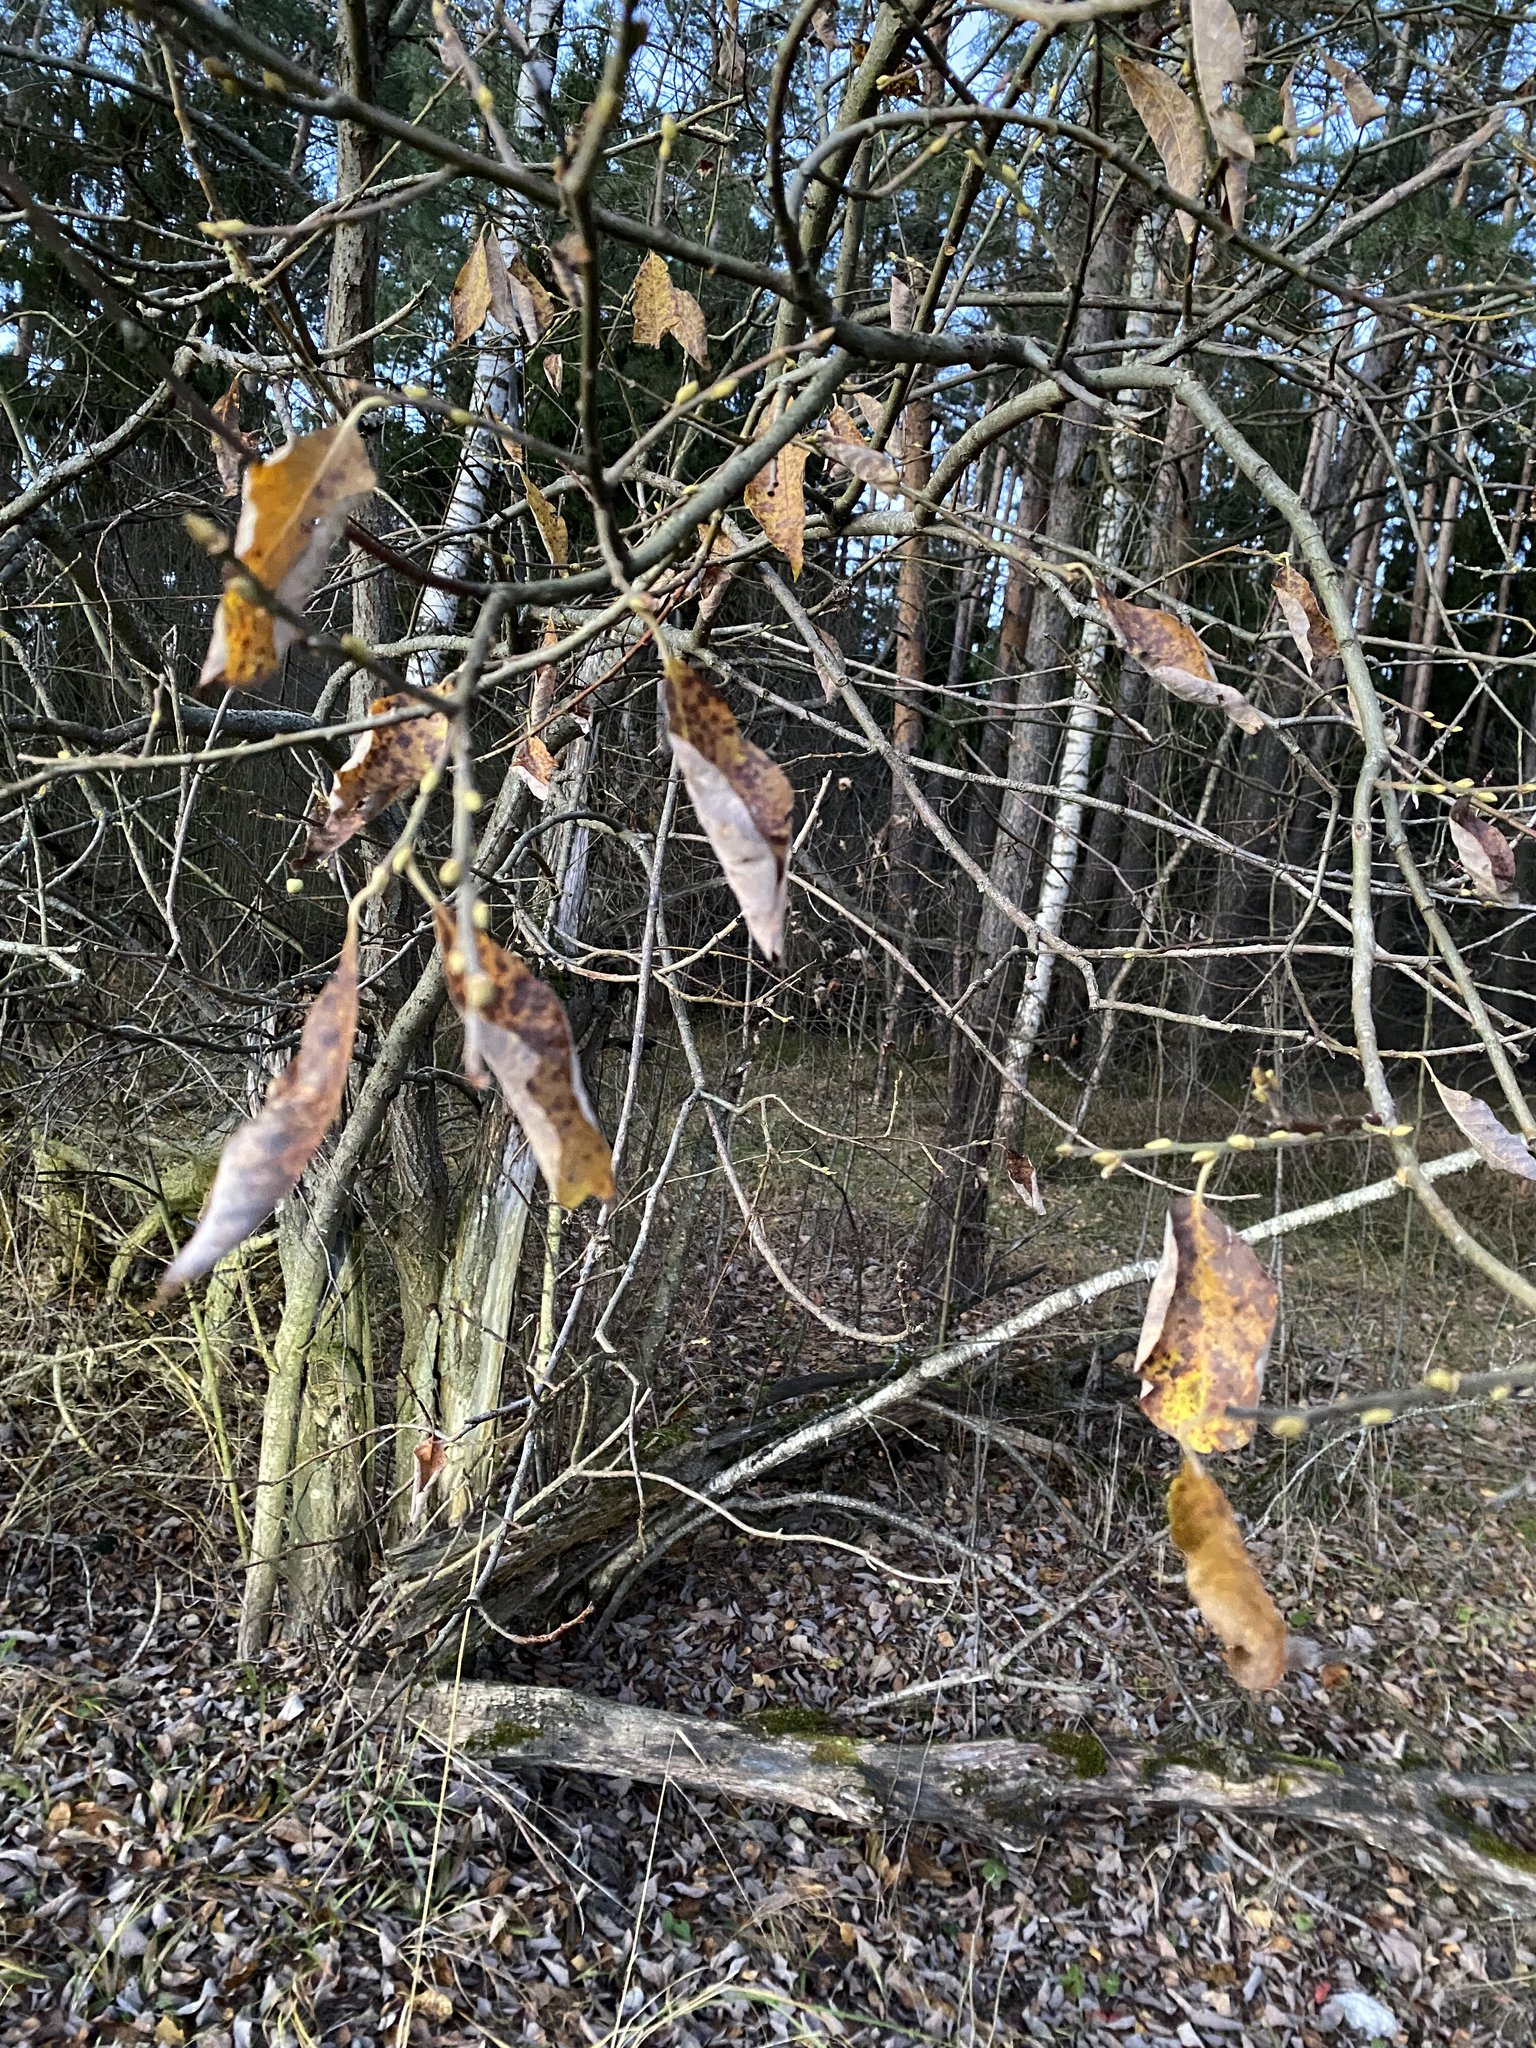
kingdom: Plantae
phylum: Tracheophyta
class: Magnoliopsida
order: Malpighiales
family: Salicaceae
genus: Salix
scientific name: Salix caprea
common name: Goat willow
